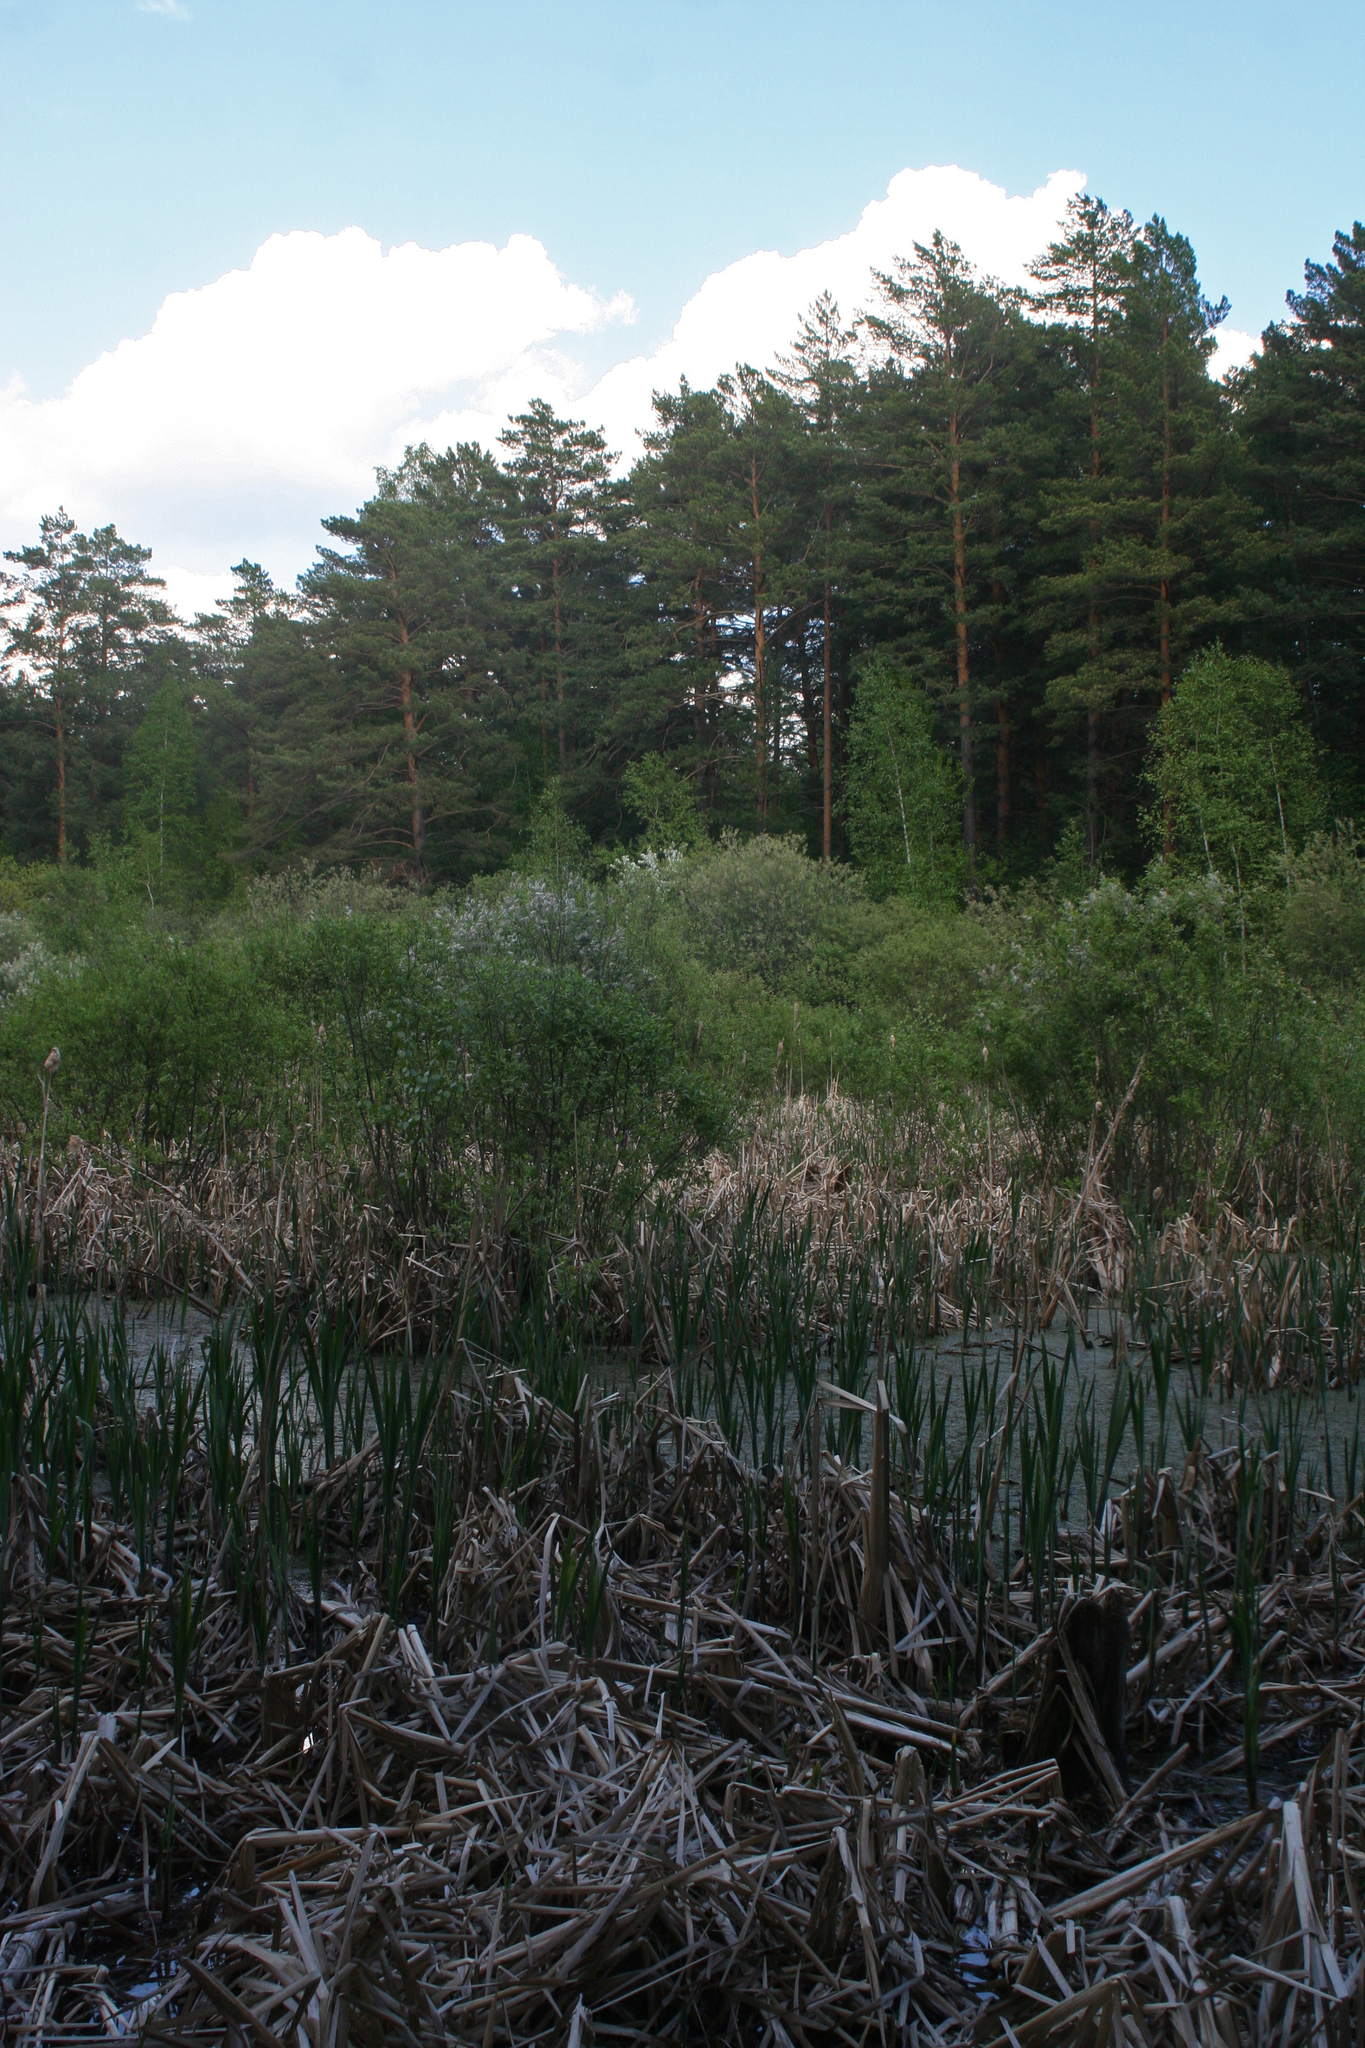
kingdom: Plantae
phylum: Tracheophyta
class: Pinopsida
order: Pinales
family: Pinaceae
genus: Pinus
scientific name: Pinus sylvestris
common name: Scots pine
